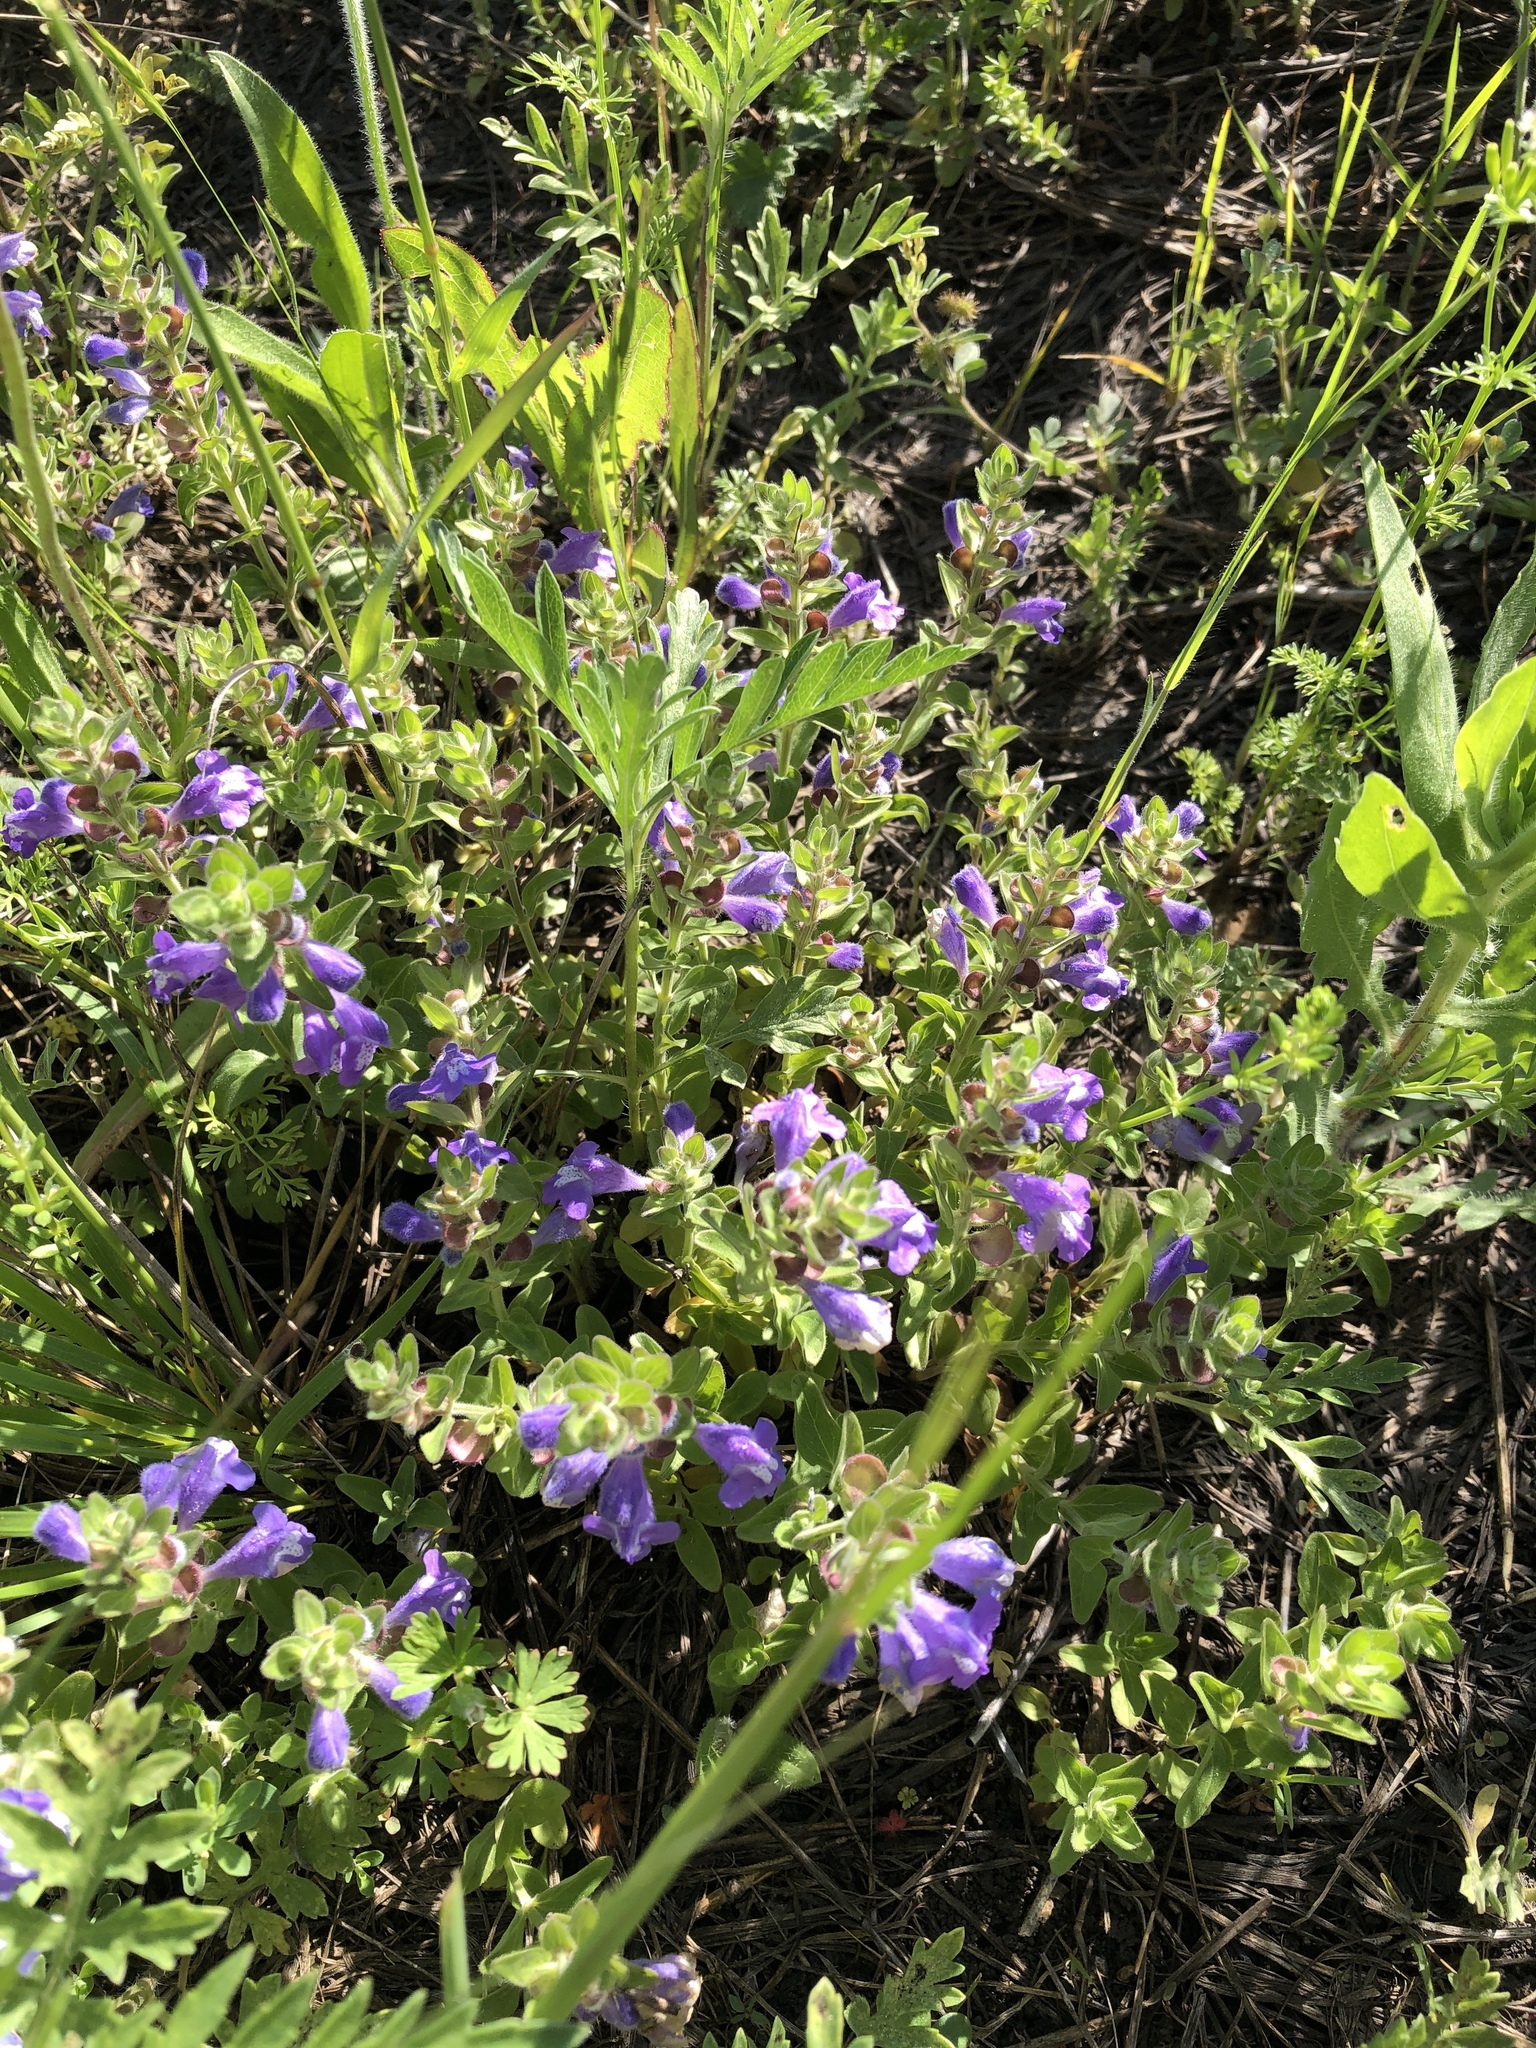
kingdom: Plantae
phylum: Tracheophyta
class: Magnoliopsida
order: Lamiales
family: Lamiaceae
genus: Scutellaria
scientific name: Scutellaria drummondii
